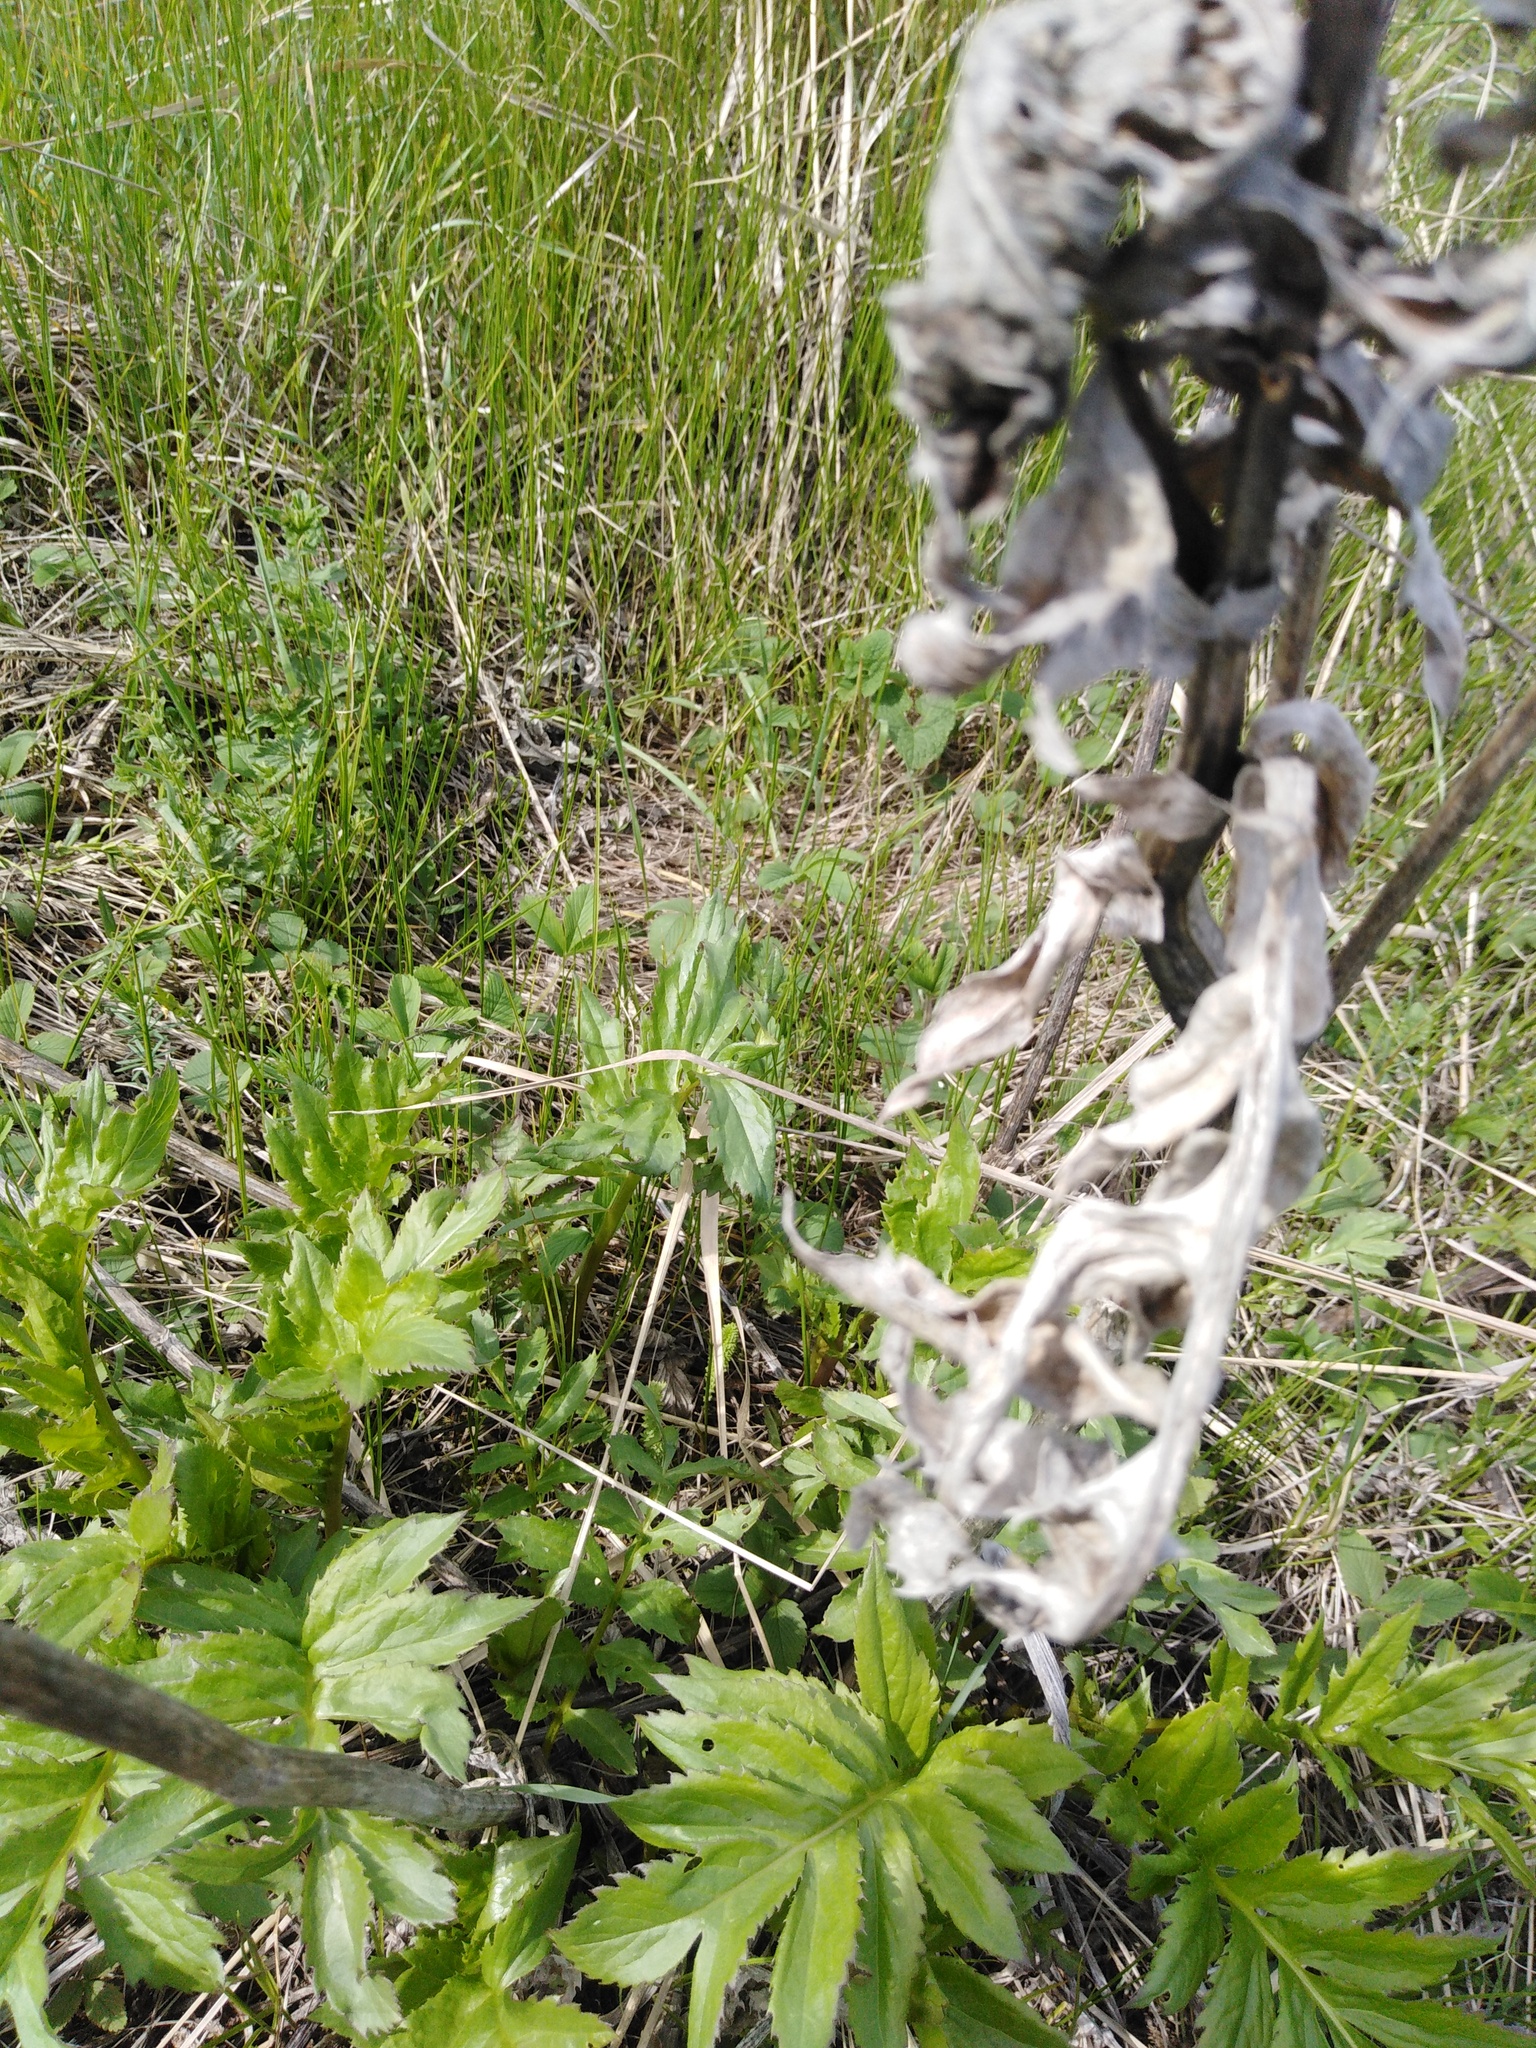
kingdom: Plantae
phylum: Tracheophyta
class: Magnoliopsida
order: Asterales
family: Asteraceae
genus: Serratula
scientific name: Serratula coronata
